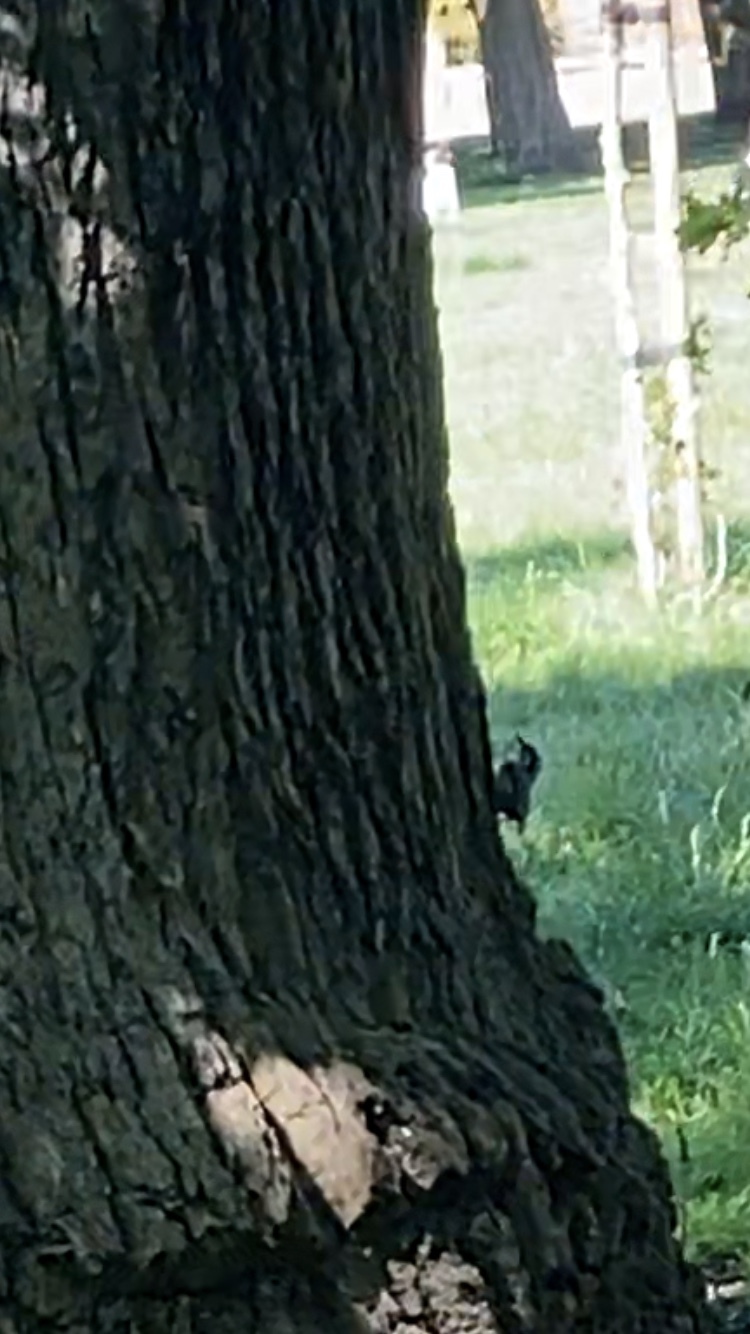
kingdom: Animalia
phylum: Chordata
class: Aves
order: Passeriformes
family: Sittidae
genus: Sitta
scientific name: Sitta europaea
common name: Eurasian nuthatch
